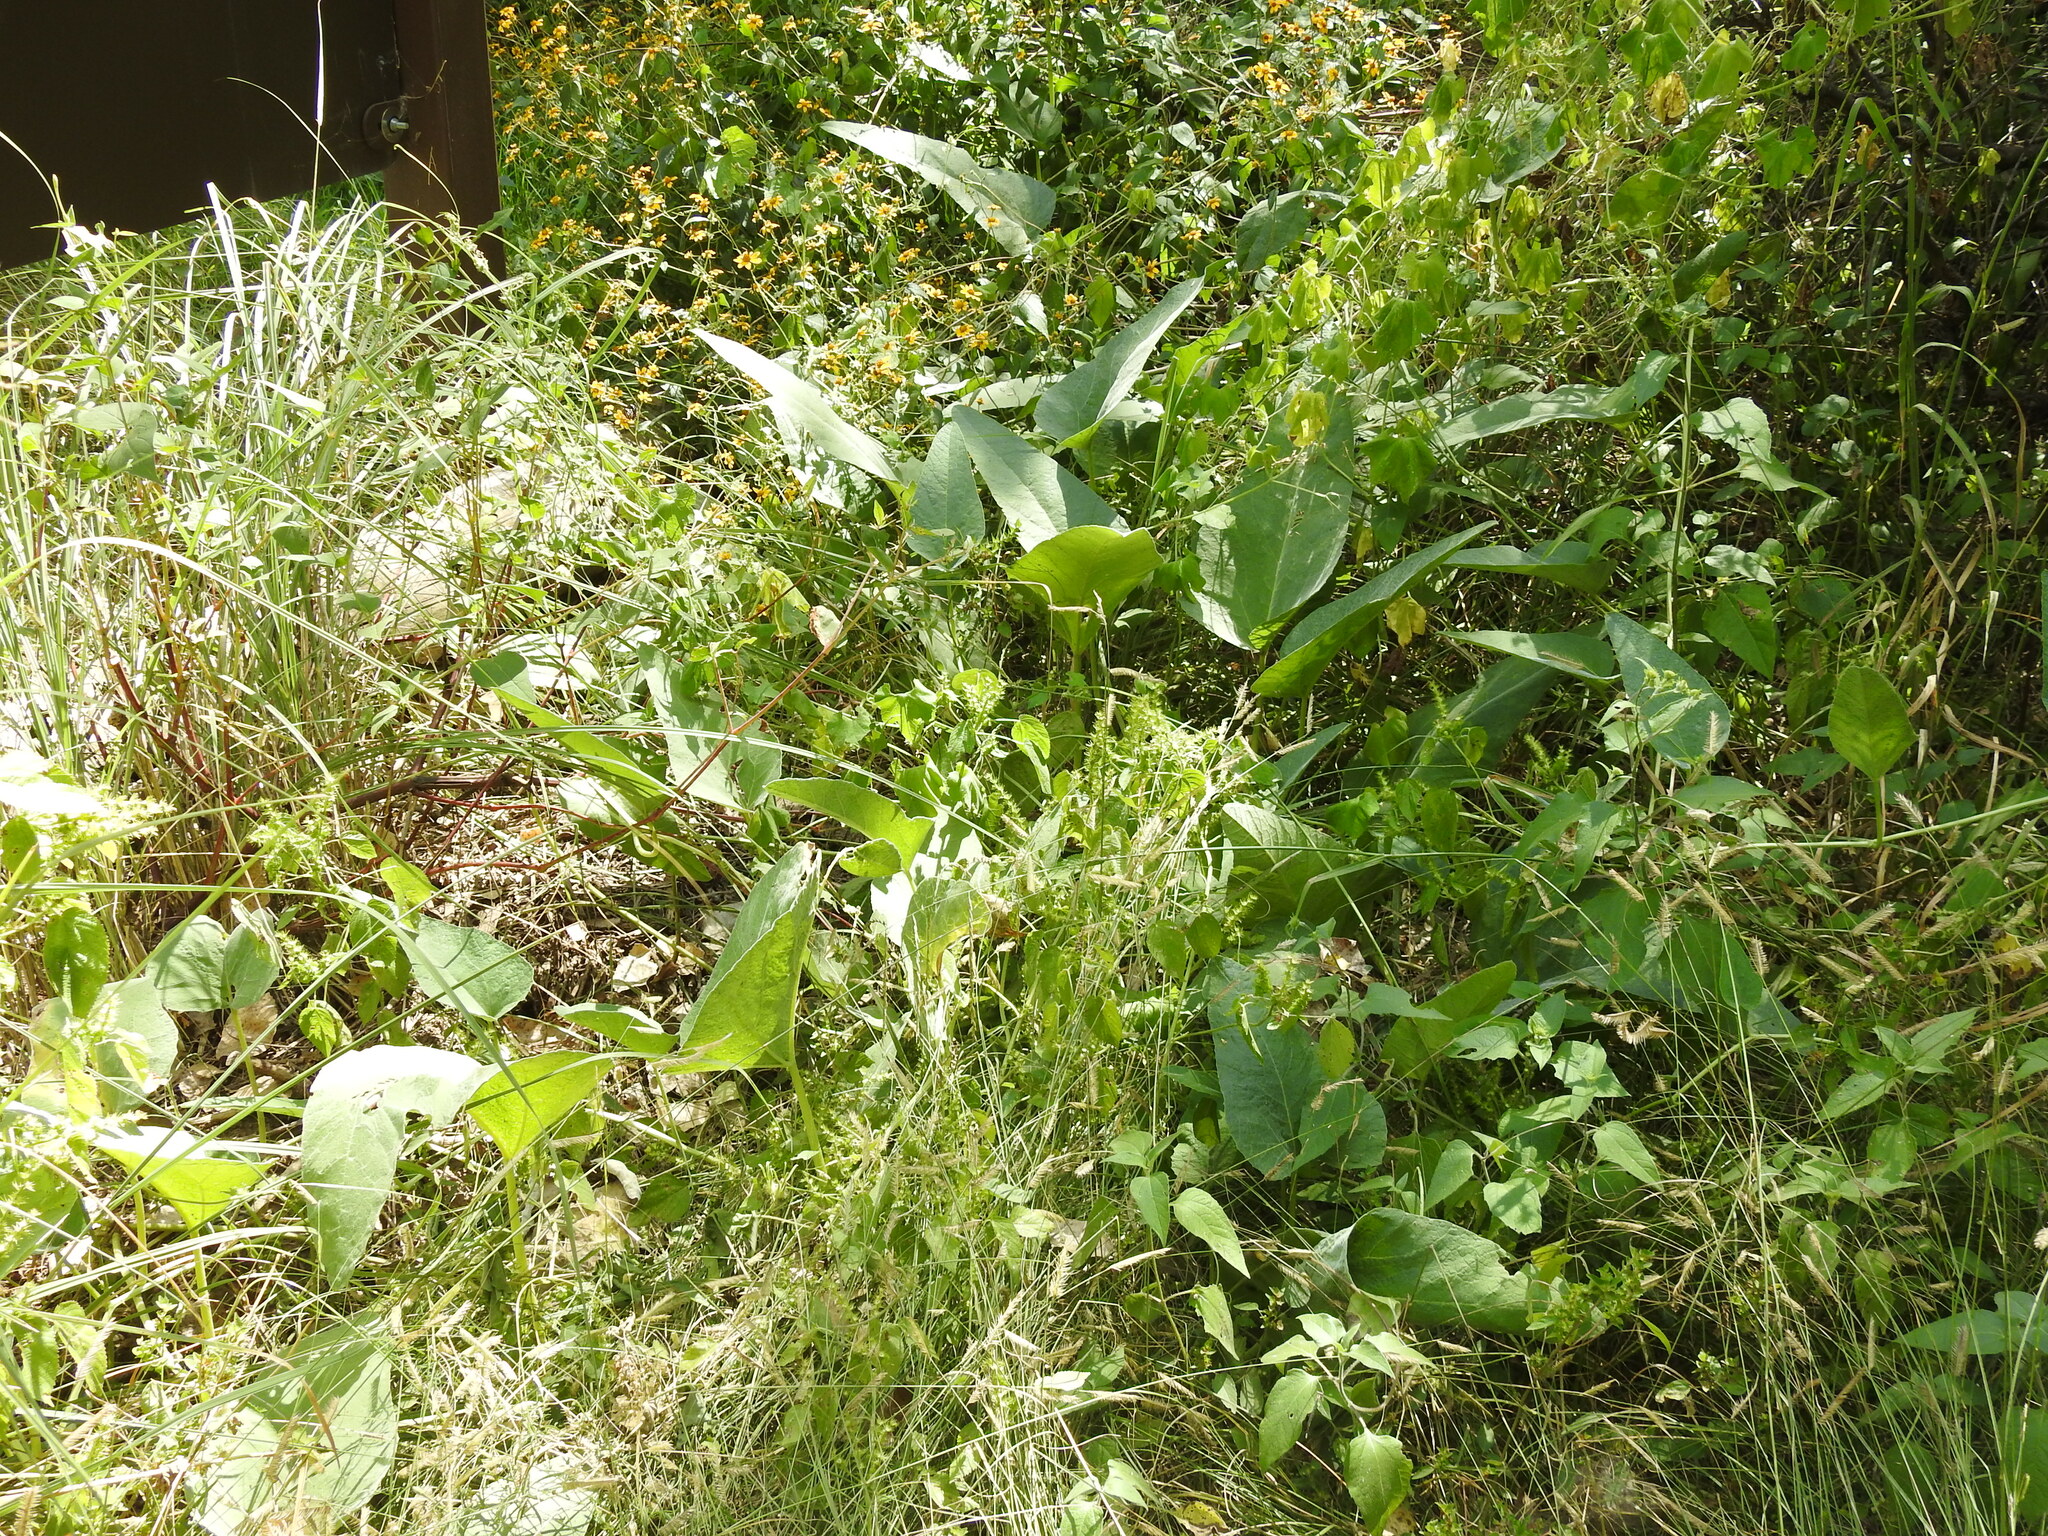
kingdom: Plantae
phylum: Tracheophyta
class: Magnoliopsida
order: Cucurbitales
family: Cucurbitaceae
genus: Cucurbita
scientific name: Cucurbita foetidissima
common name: Buffalo gourd
